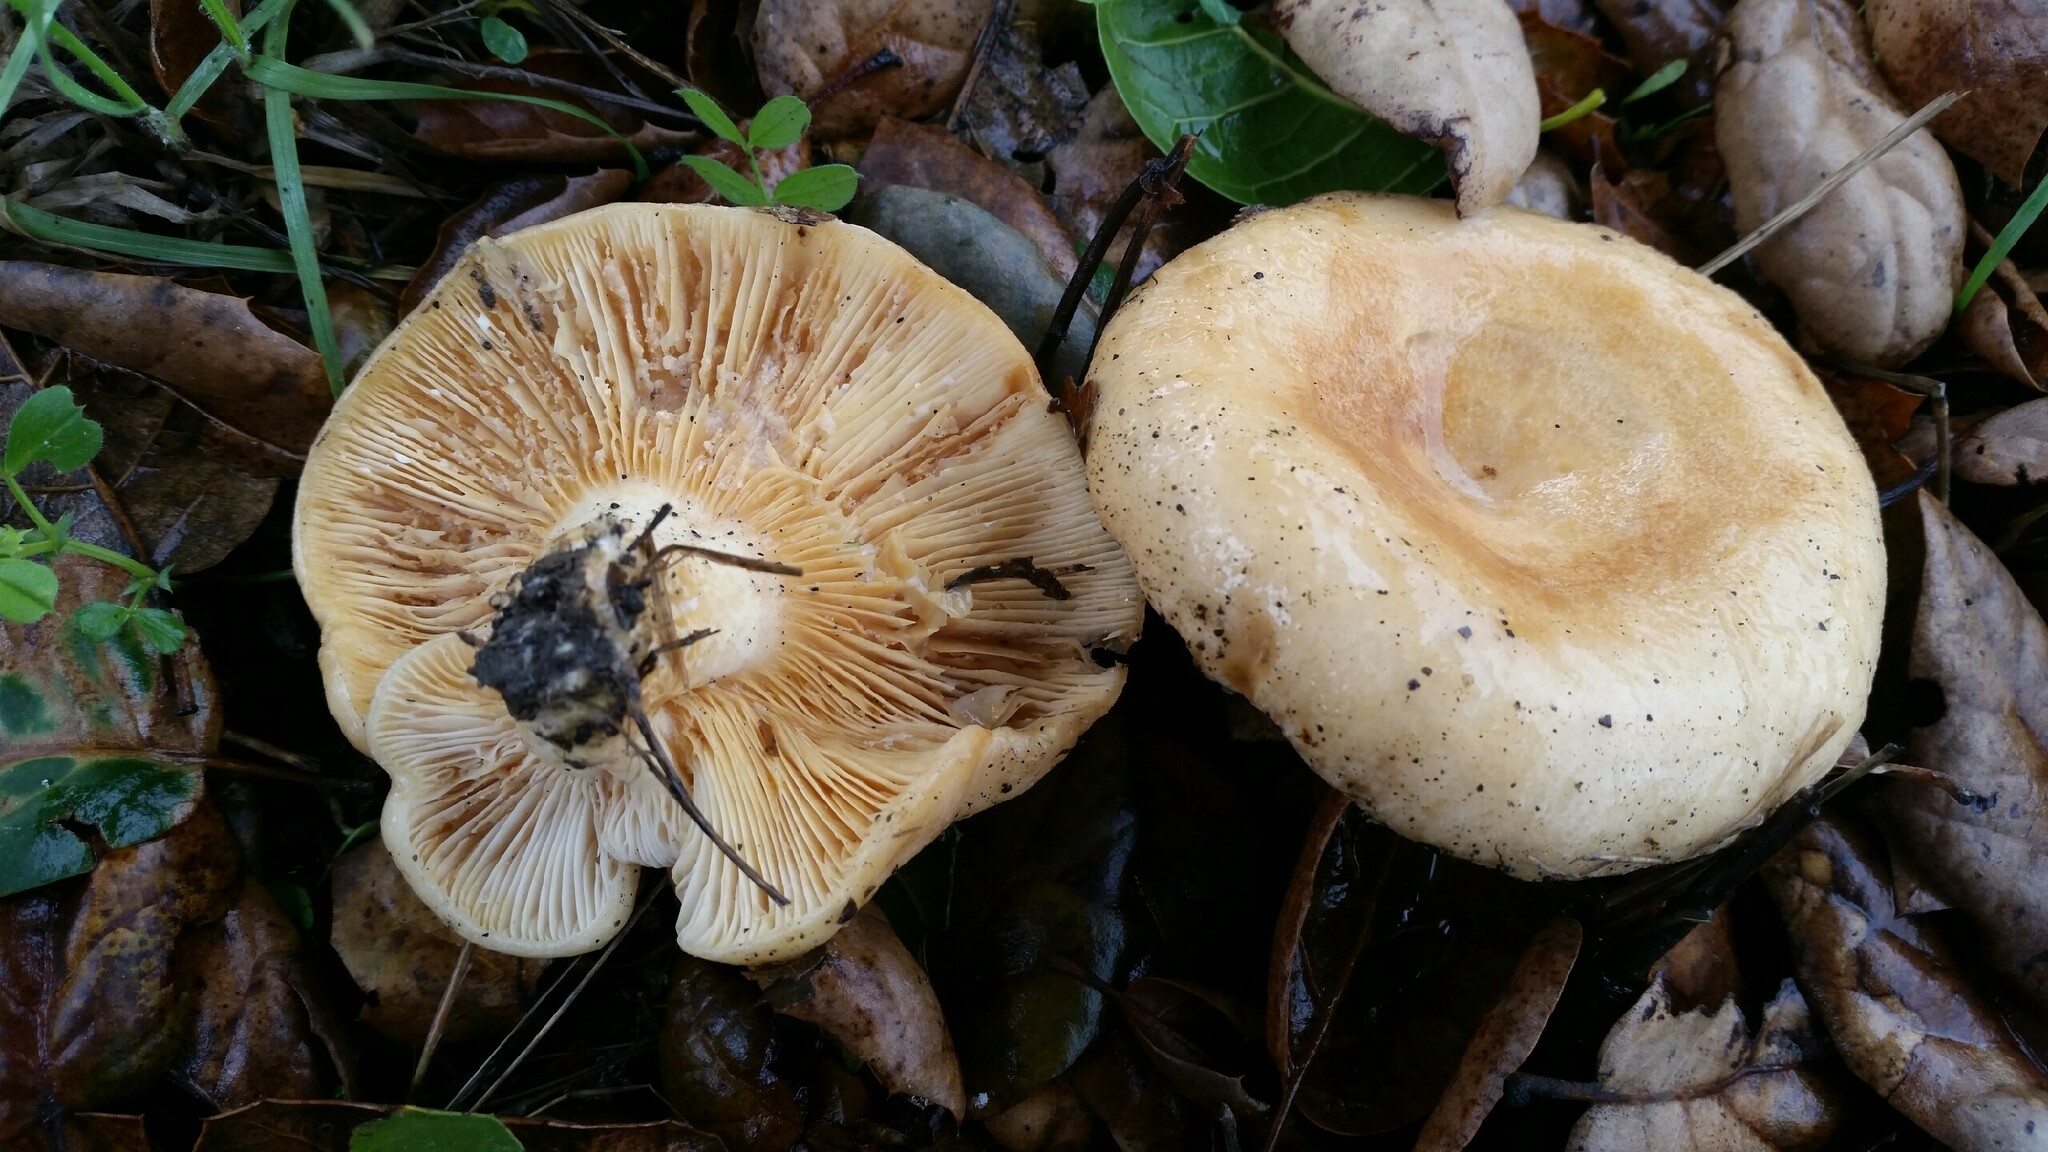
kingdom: Fungi
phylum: Basidiomycota
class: Agaricomycetes
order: Russulales
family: Russulaceae
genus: Lactarius
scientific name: Lactarius alnicola
